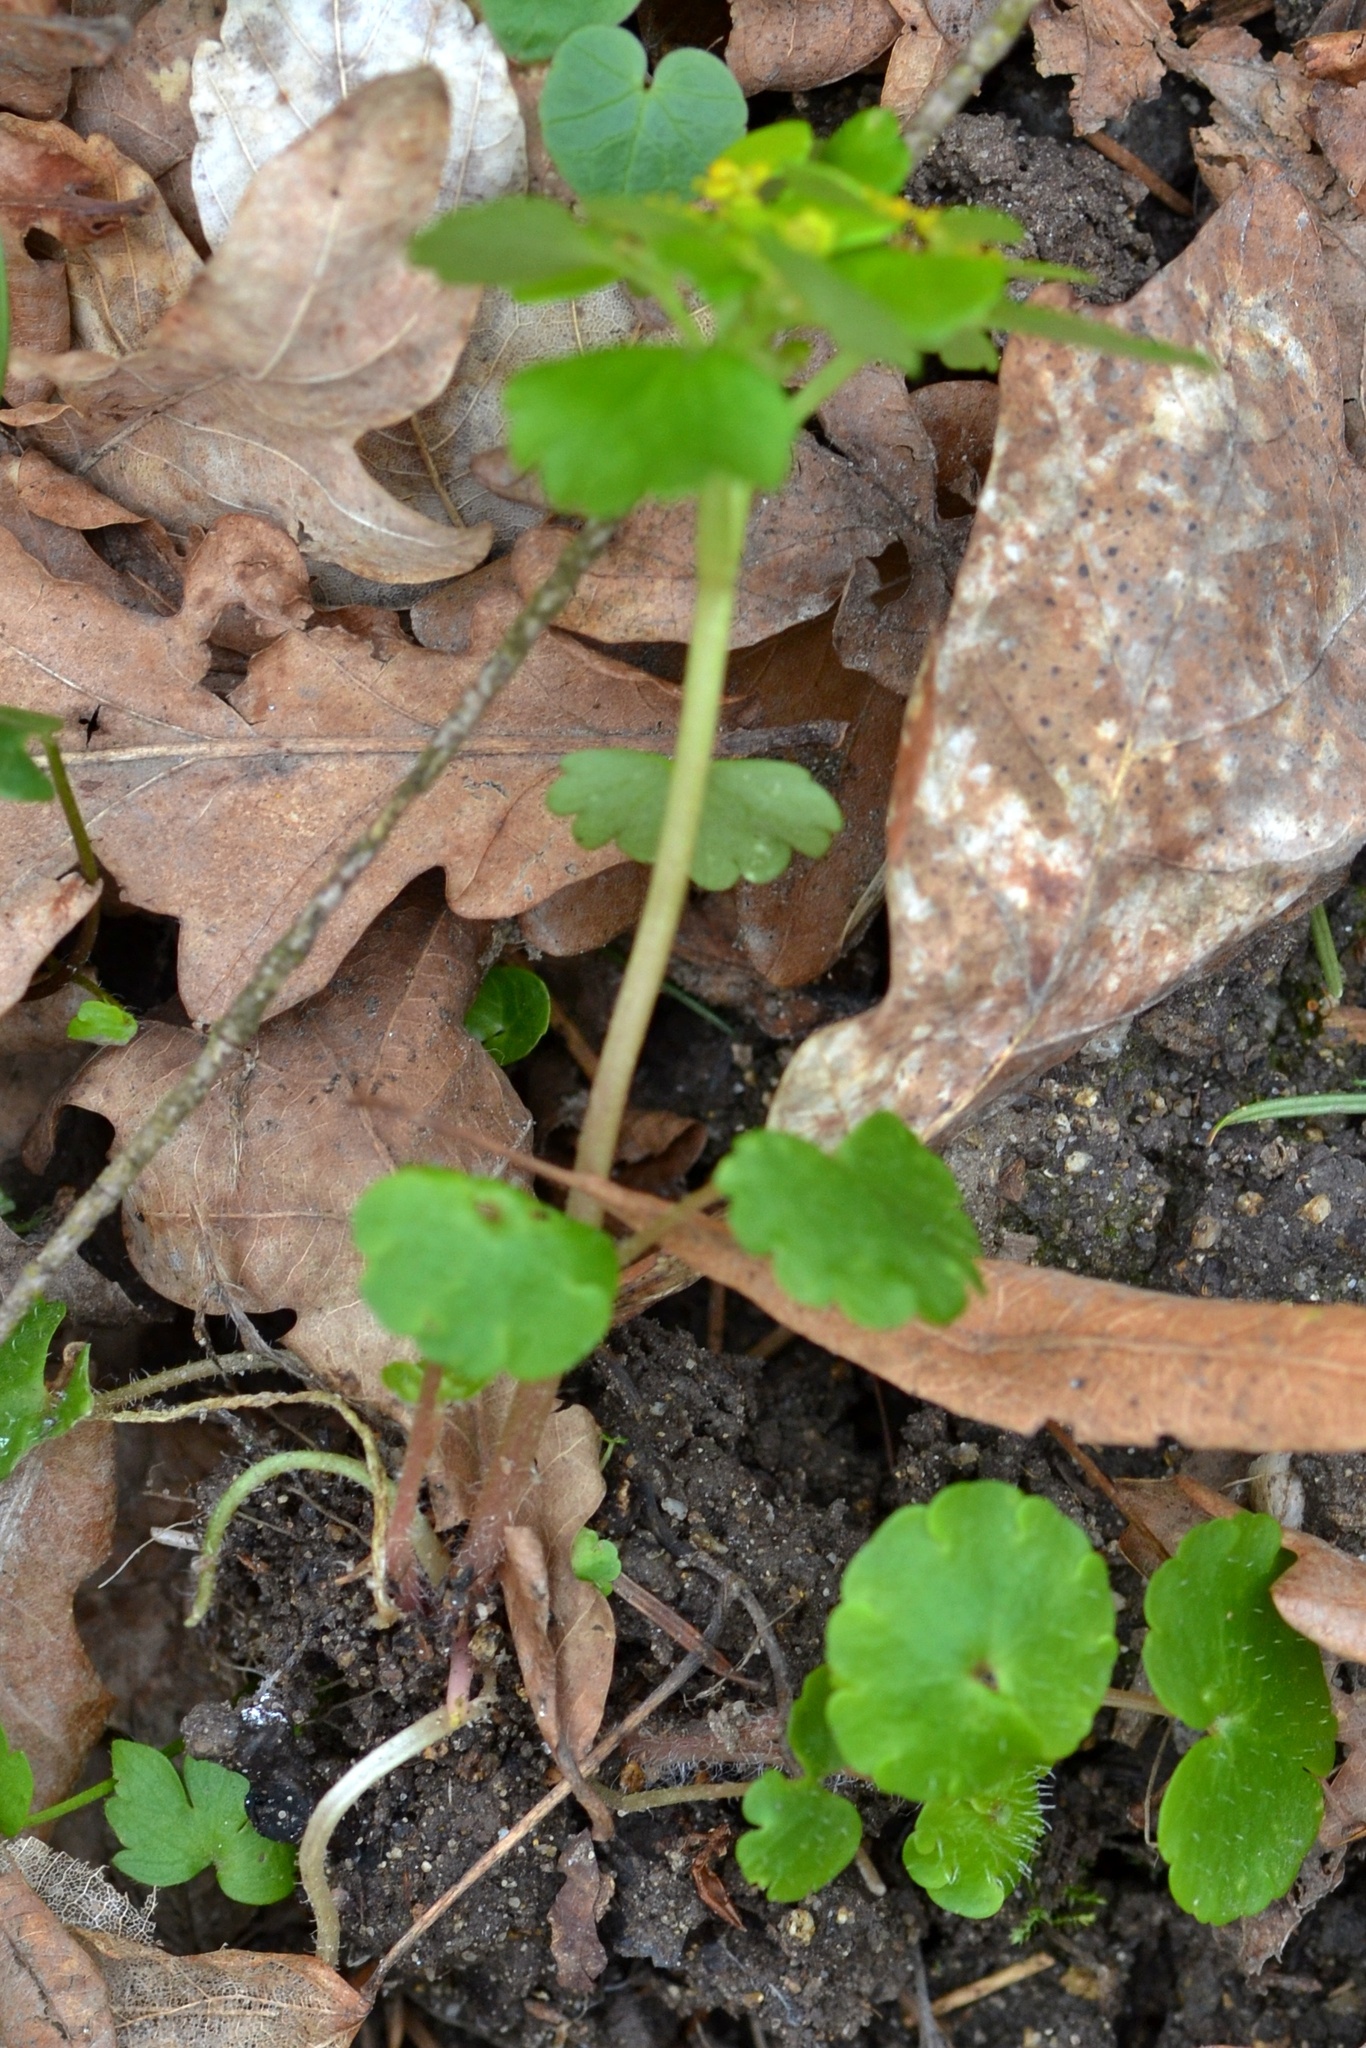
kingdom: Plantae
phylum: Tracheophyta
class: Magnoliopsida
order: Saxifragales
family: Saxifragaceae
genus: Chrysosplenium
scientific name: Chrysosplenium alternifolium
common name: Alternate-leaved golden-saxifrage
